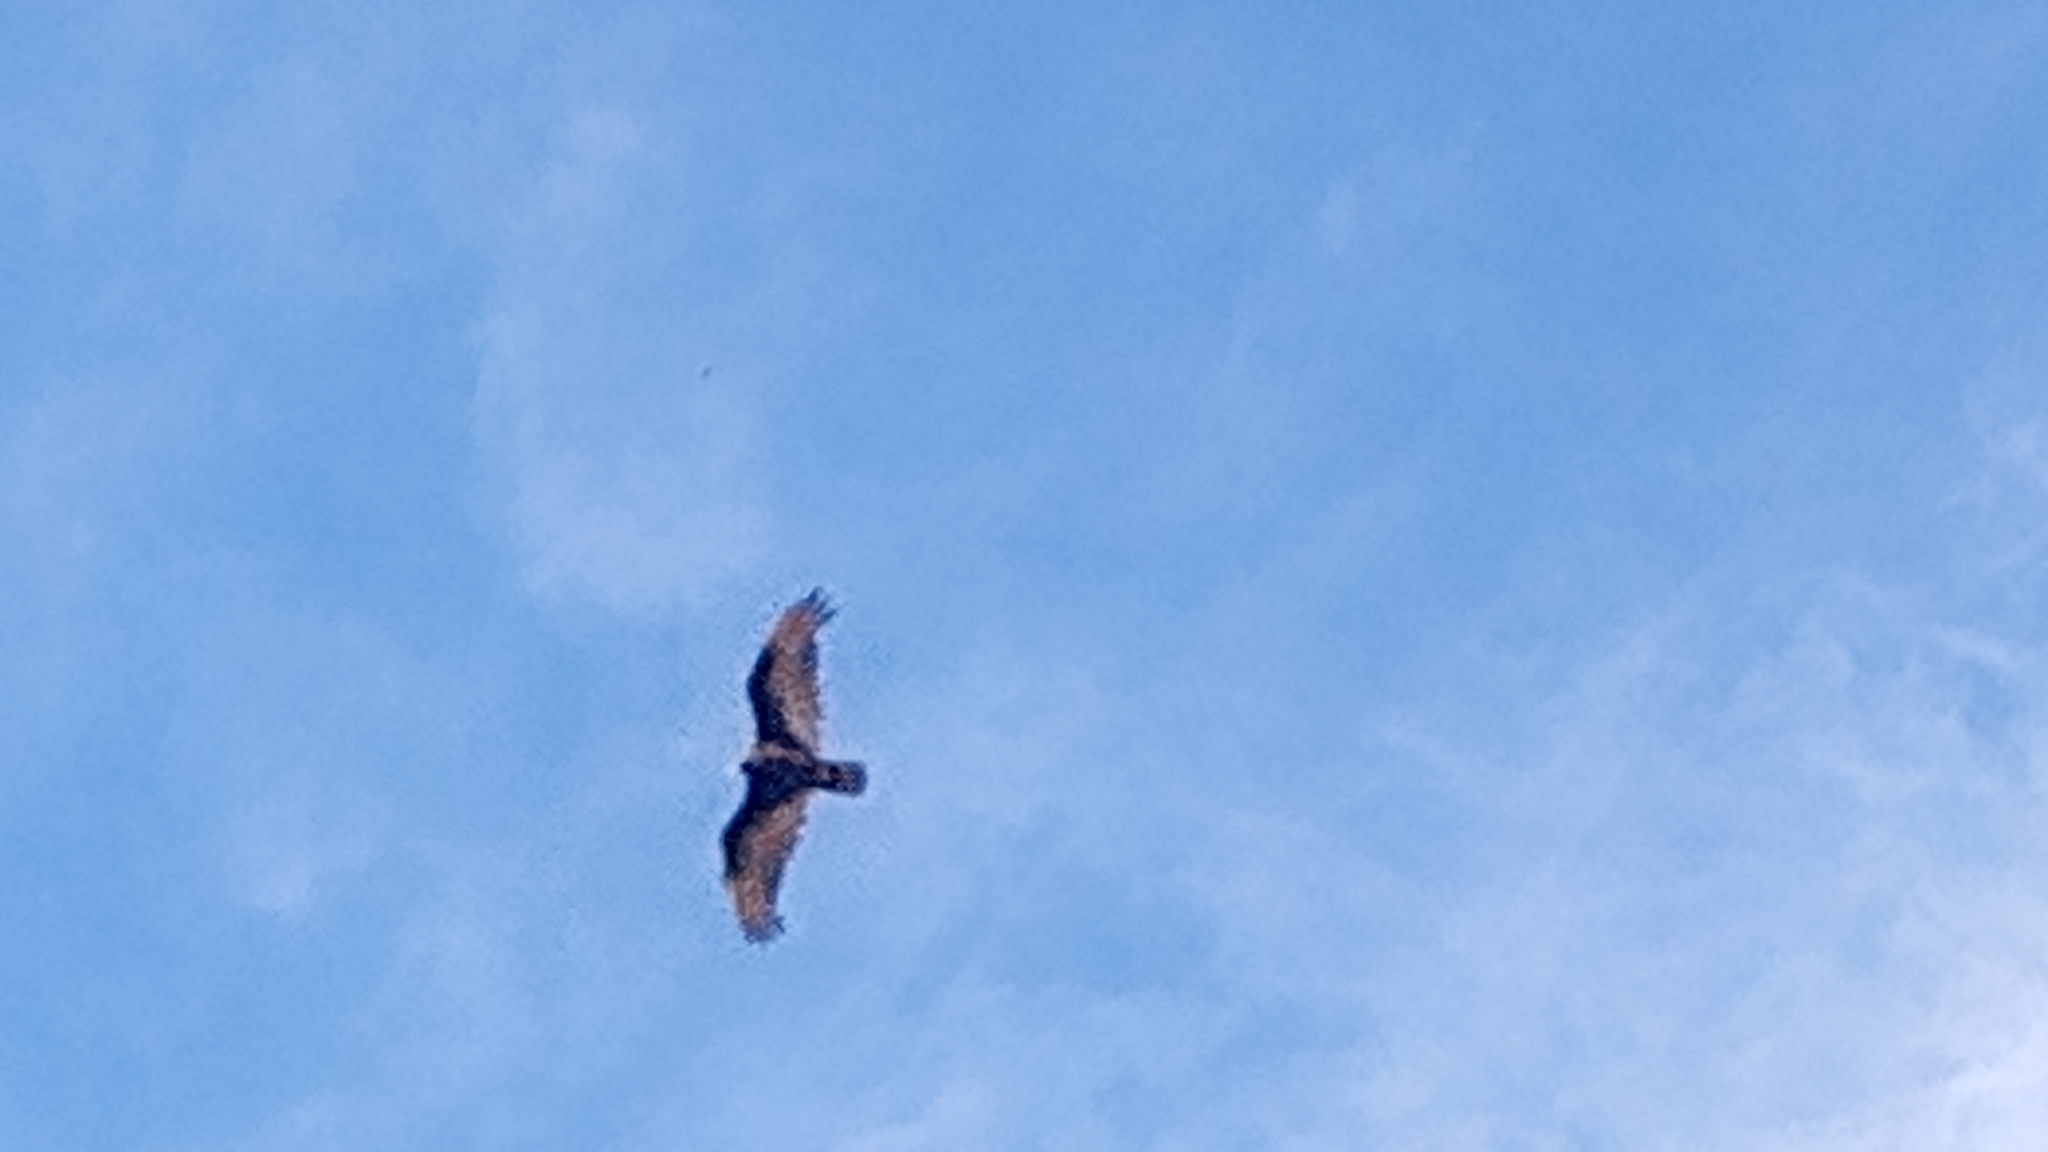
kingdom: Animalia
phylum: Chordata
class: Aves
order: Accipitriformes
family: Cathartidae
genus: Cathartes
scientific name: Cathartes aura
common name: Turkey vulture
